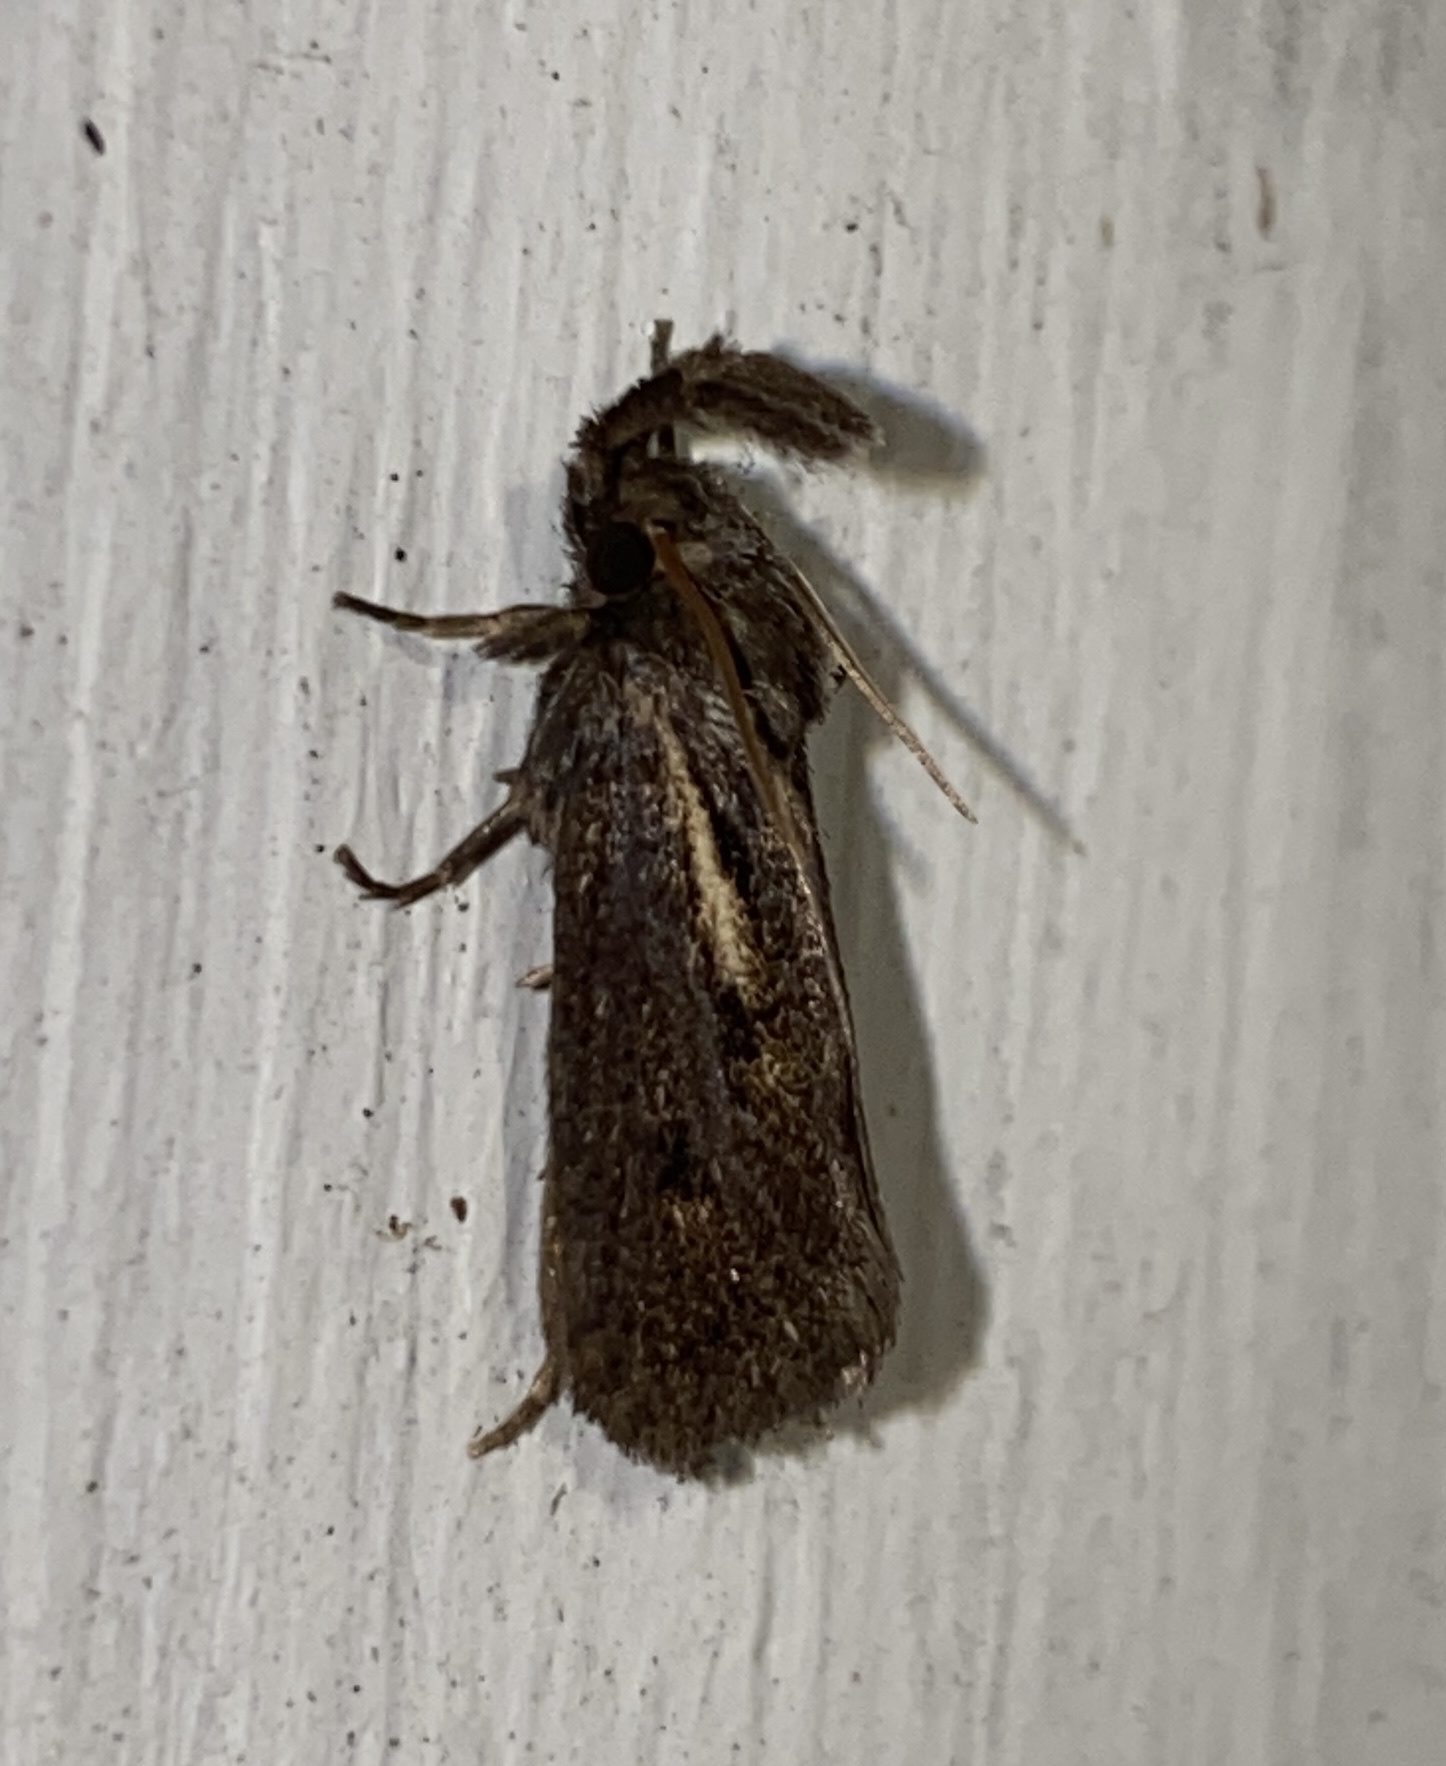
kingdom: Animalia
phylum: Arthropoda
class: Insecta
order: Lepidoptera
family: Tineidae
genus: Acrolophus
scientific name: Acrolophus popeanella
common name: Clemens' grass tubeworm moth
